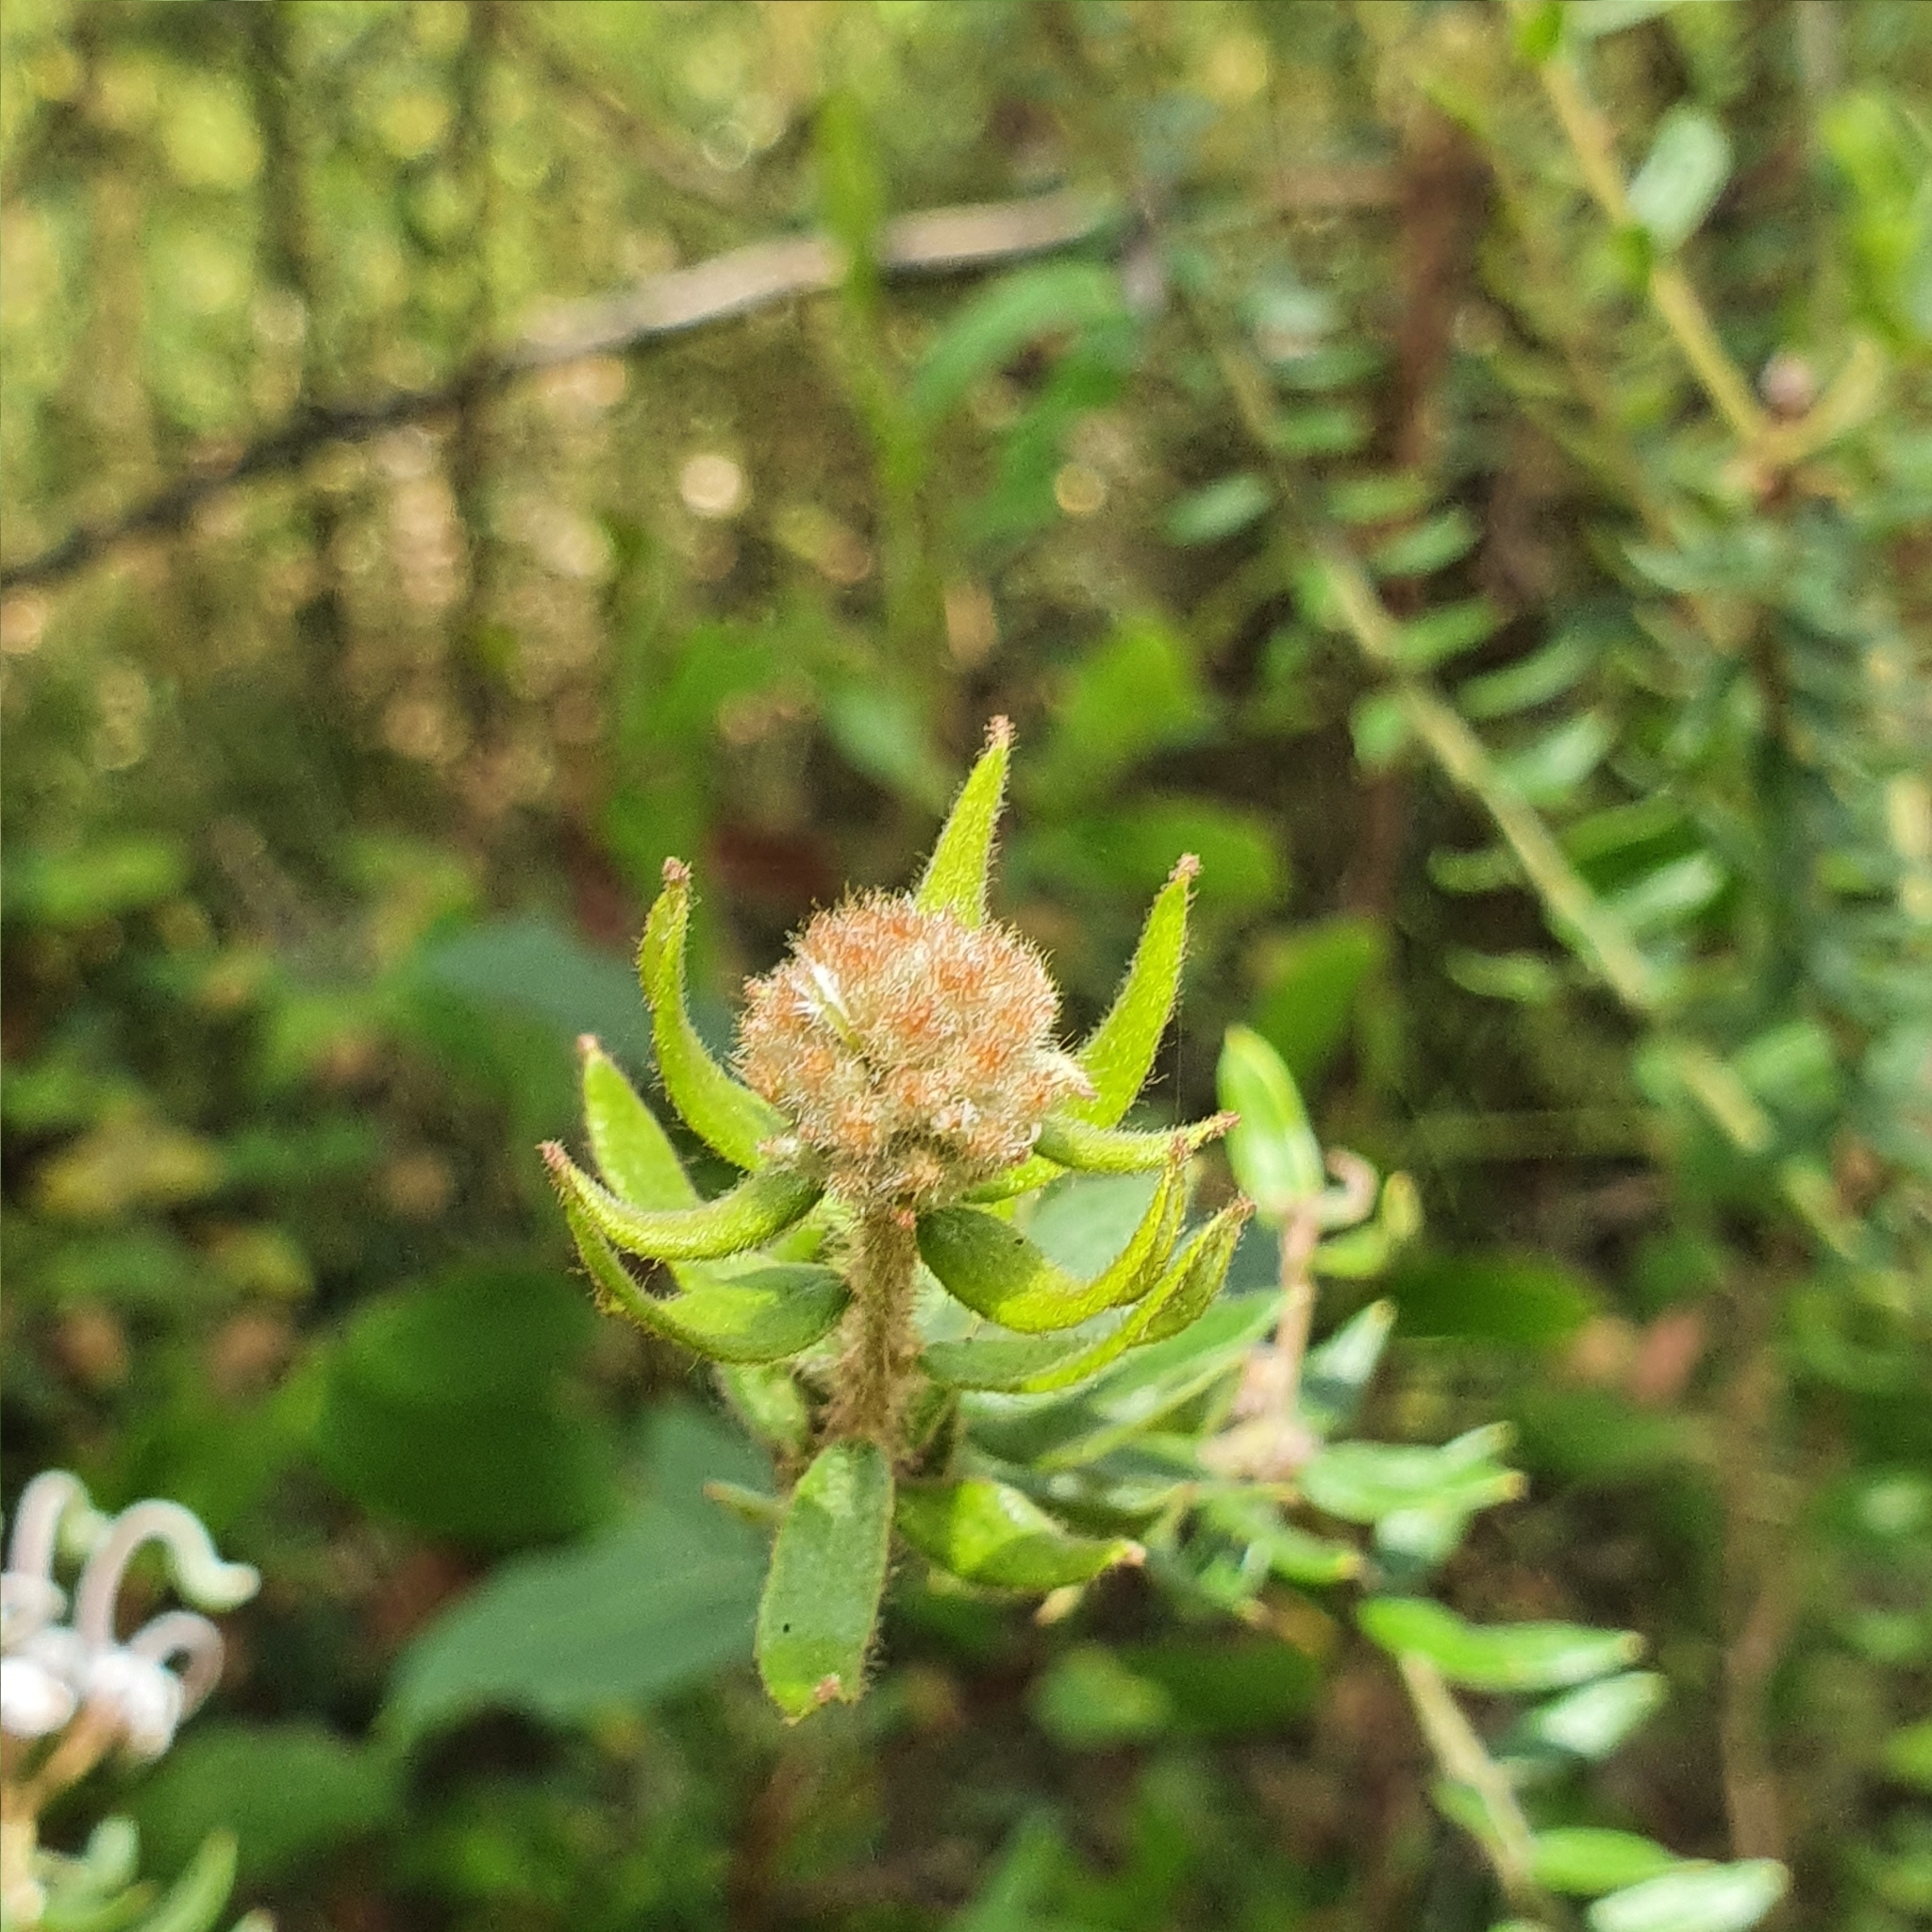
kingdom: Plantae
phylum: Tracheophyta
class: Magnoliopsida
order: Proteales
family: Proteaceae
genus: Grevillea
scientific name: Grevillea buxifolia
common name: Grey spiderflower
